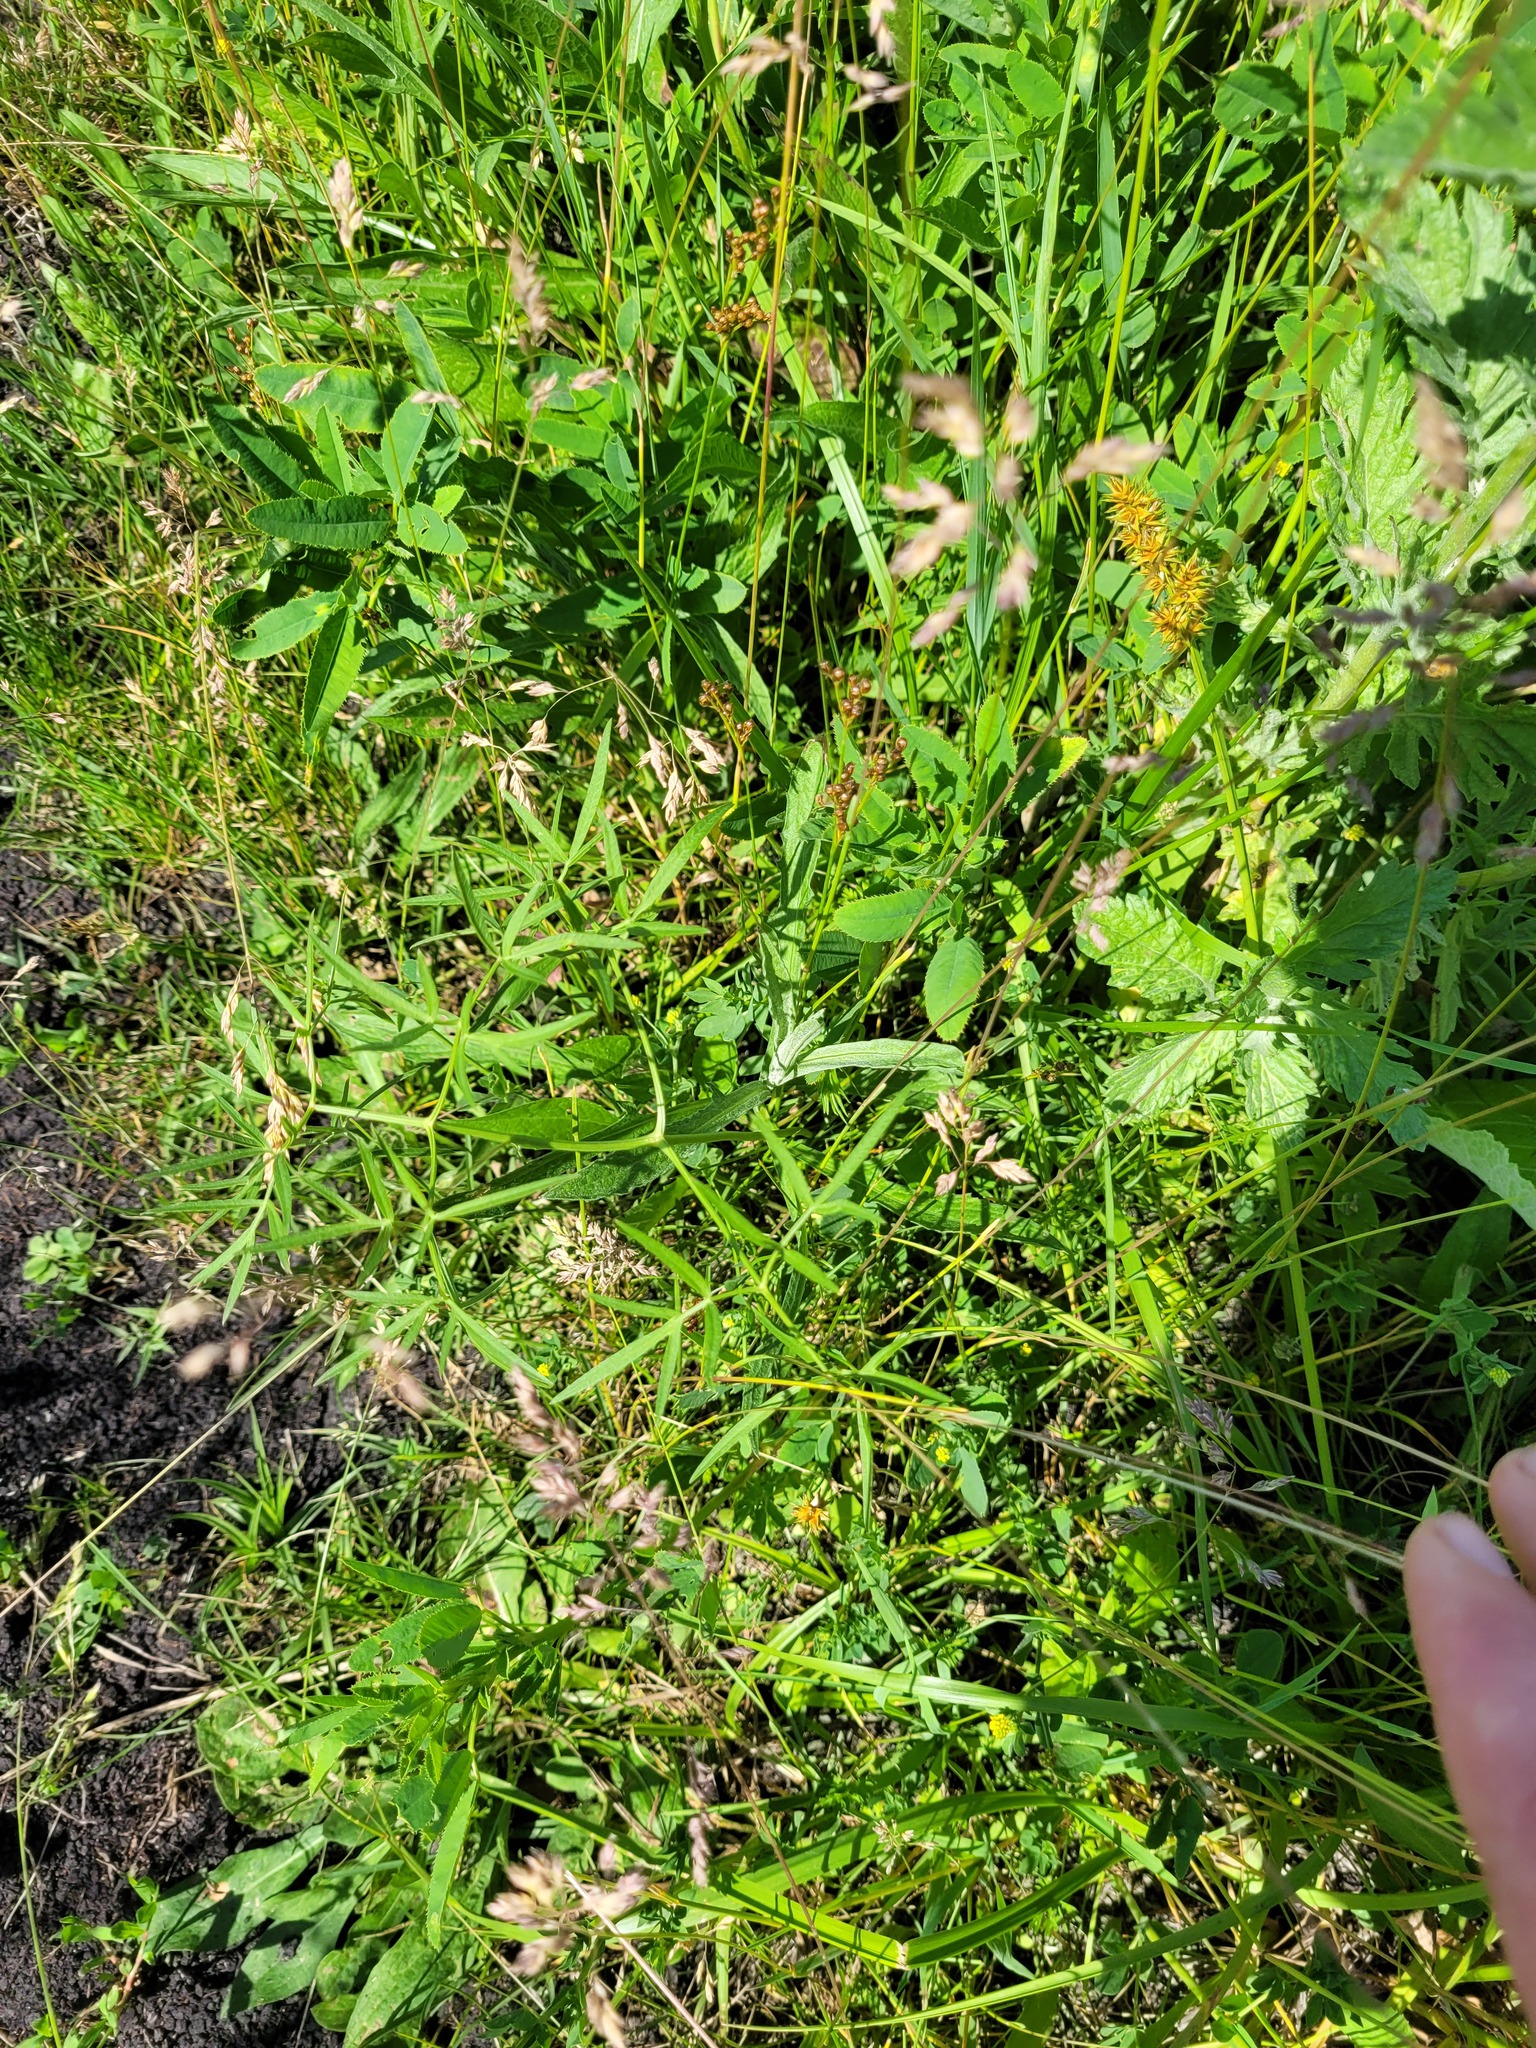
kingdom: Plantae
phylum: Tracheophyta
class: Magnoliopsida
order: Apiales
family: Apiaceae
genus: Cenolophium
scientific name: Cenolophium fischeri
